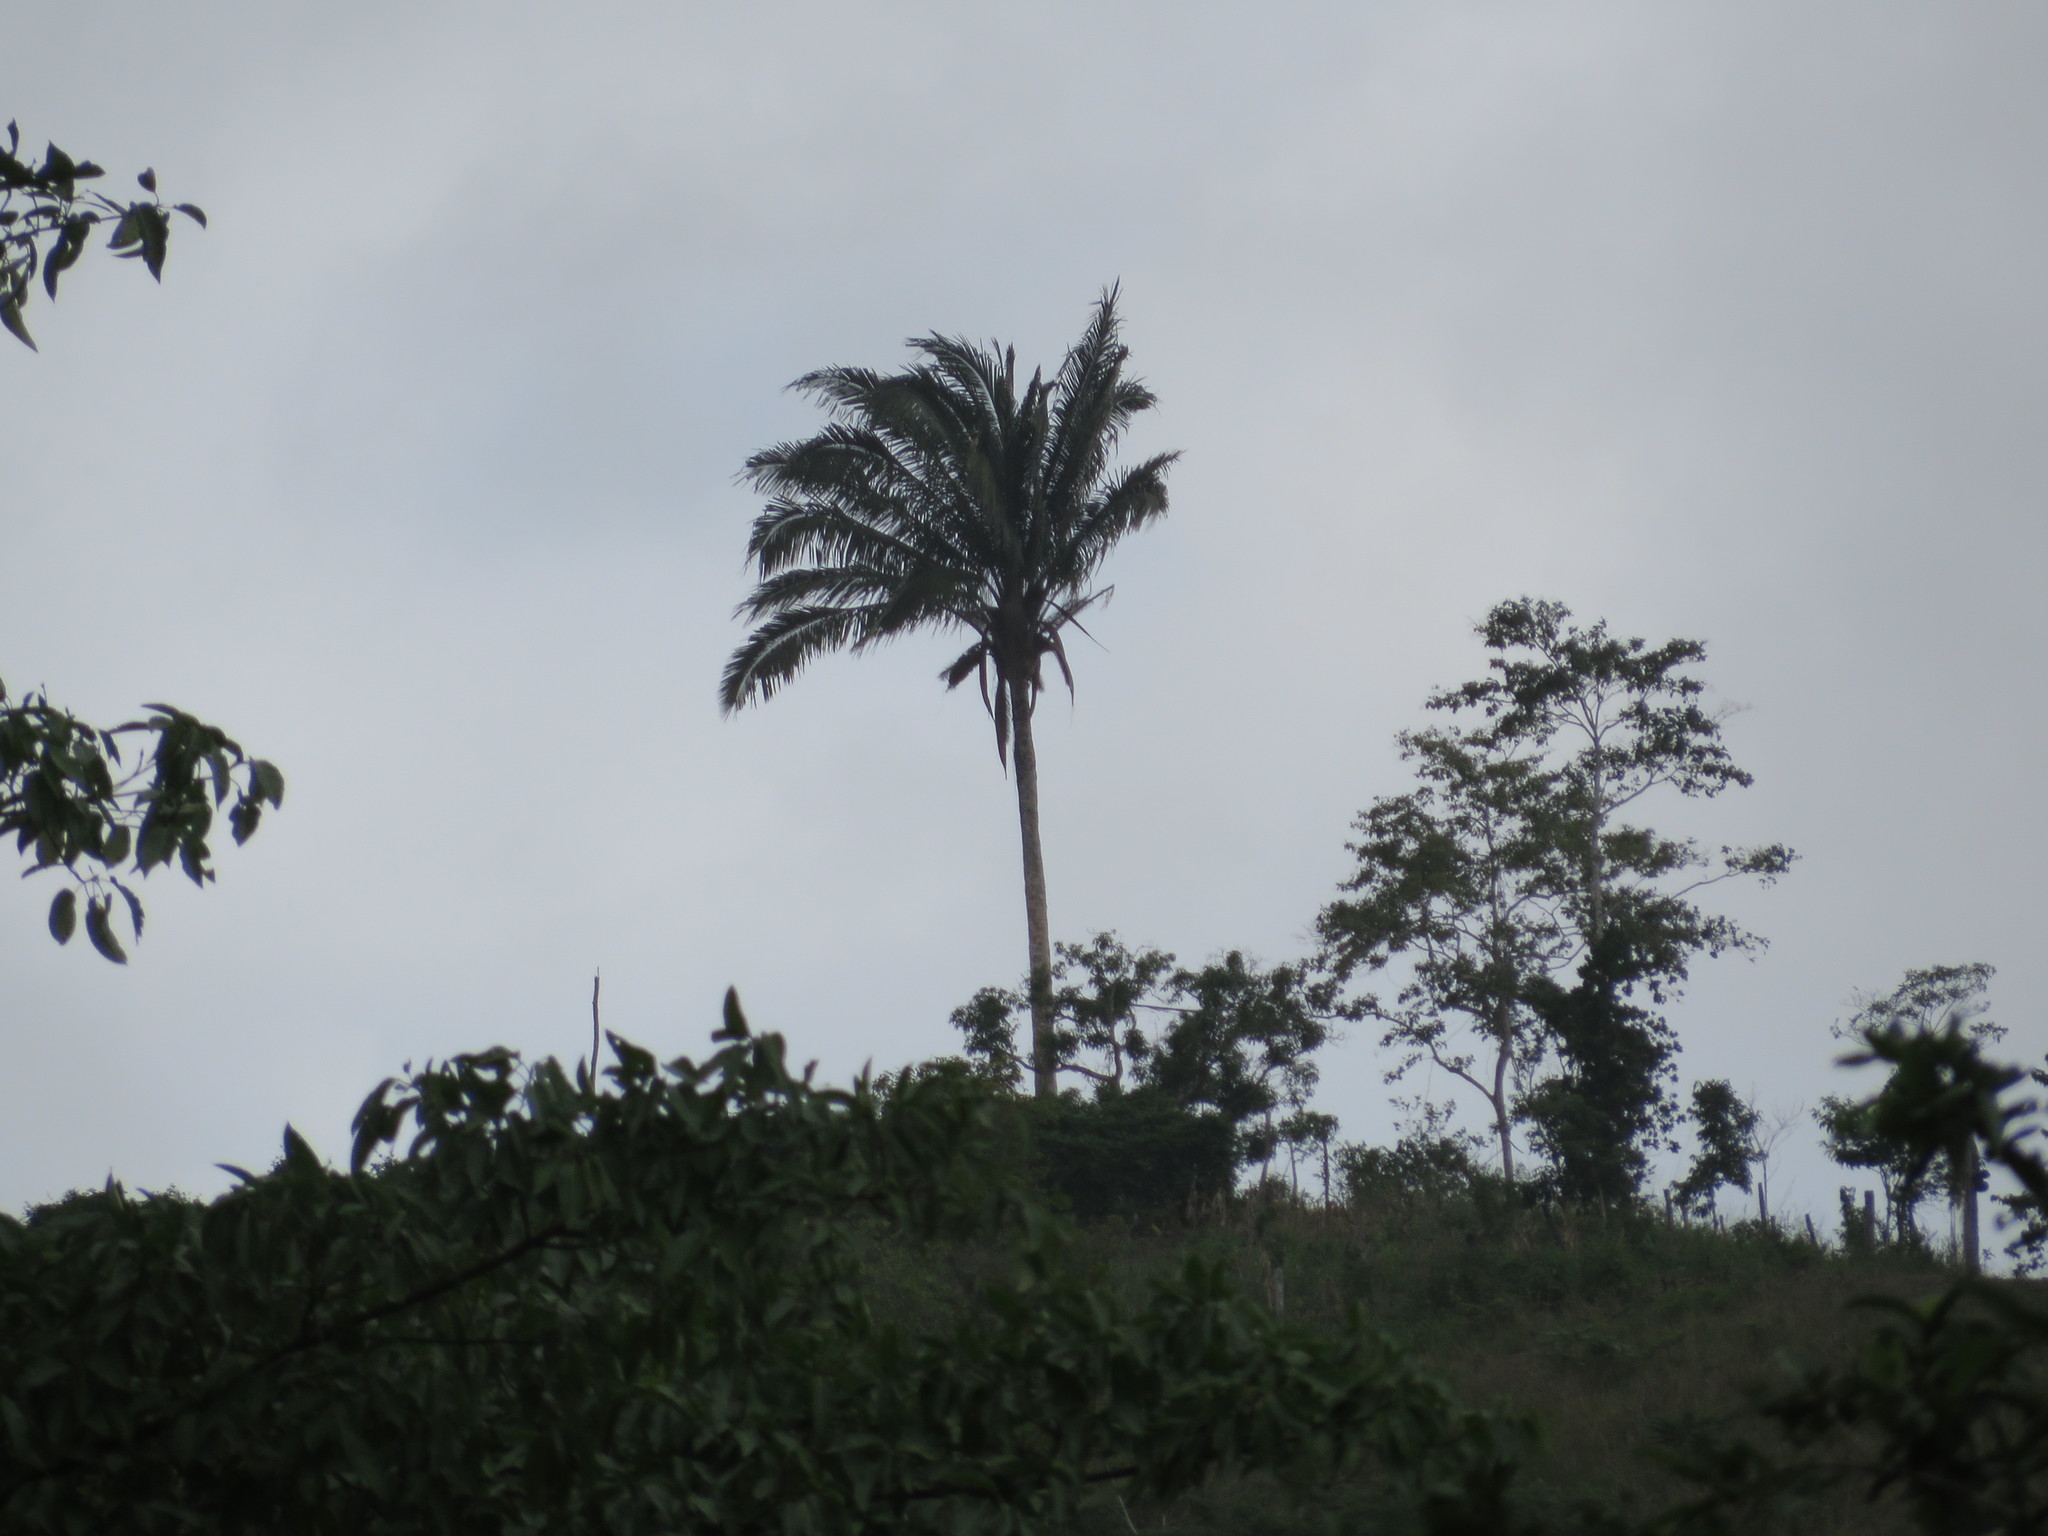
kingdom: Plantae
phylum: Tracheophyta
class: Liliopsida
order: Arecales
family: Arecaceae
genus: Attalea
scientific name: Attalea colenda
